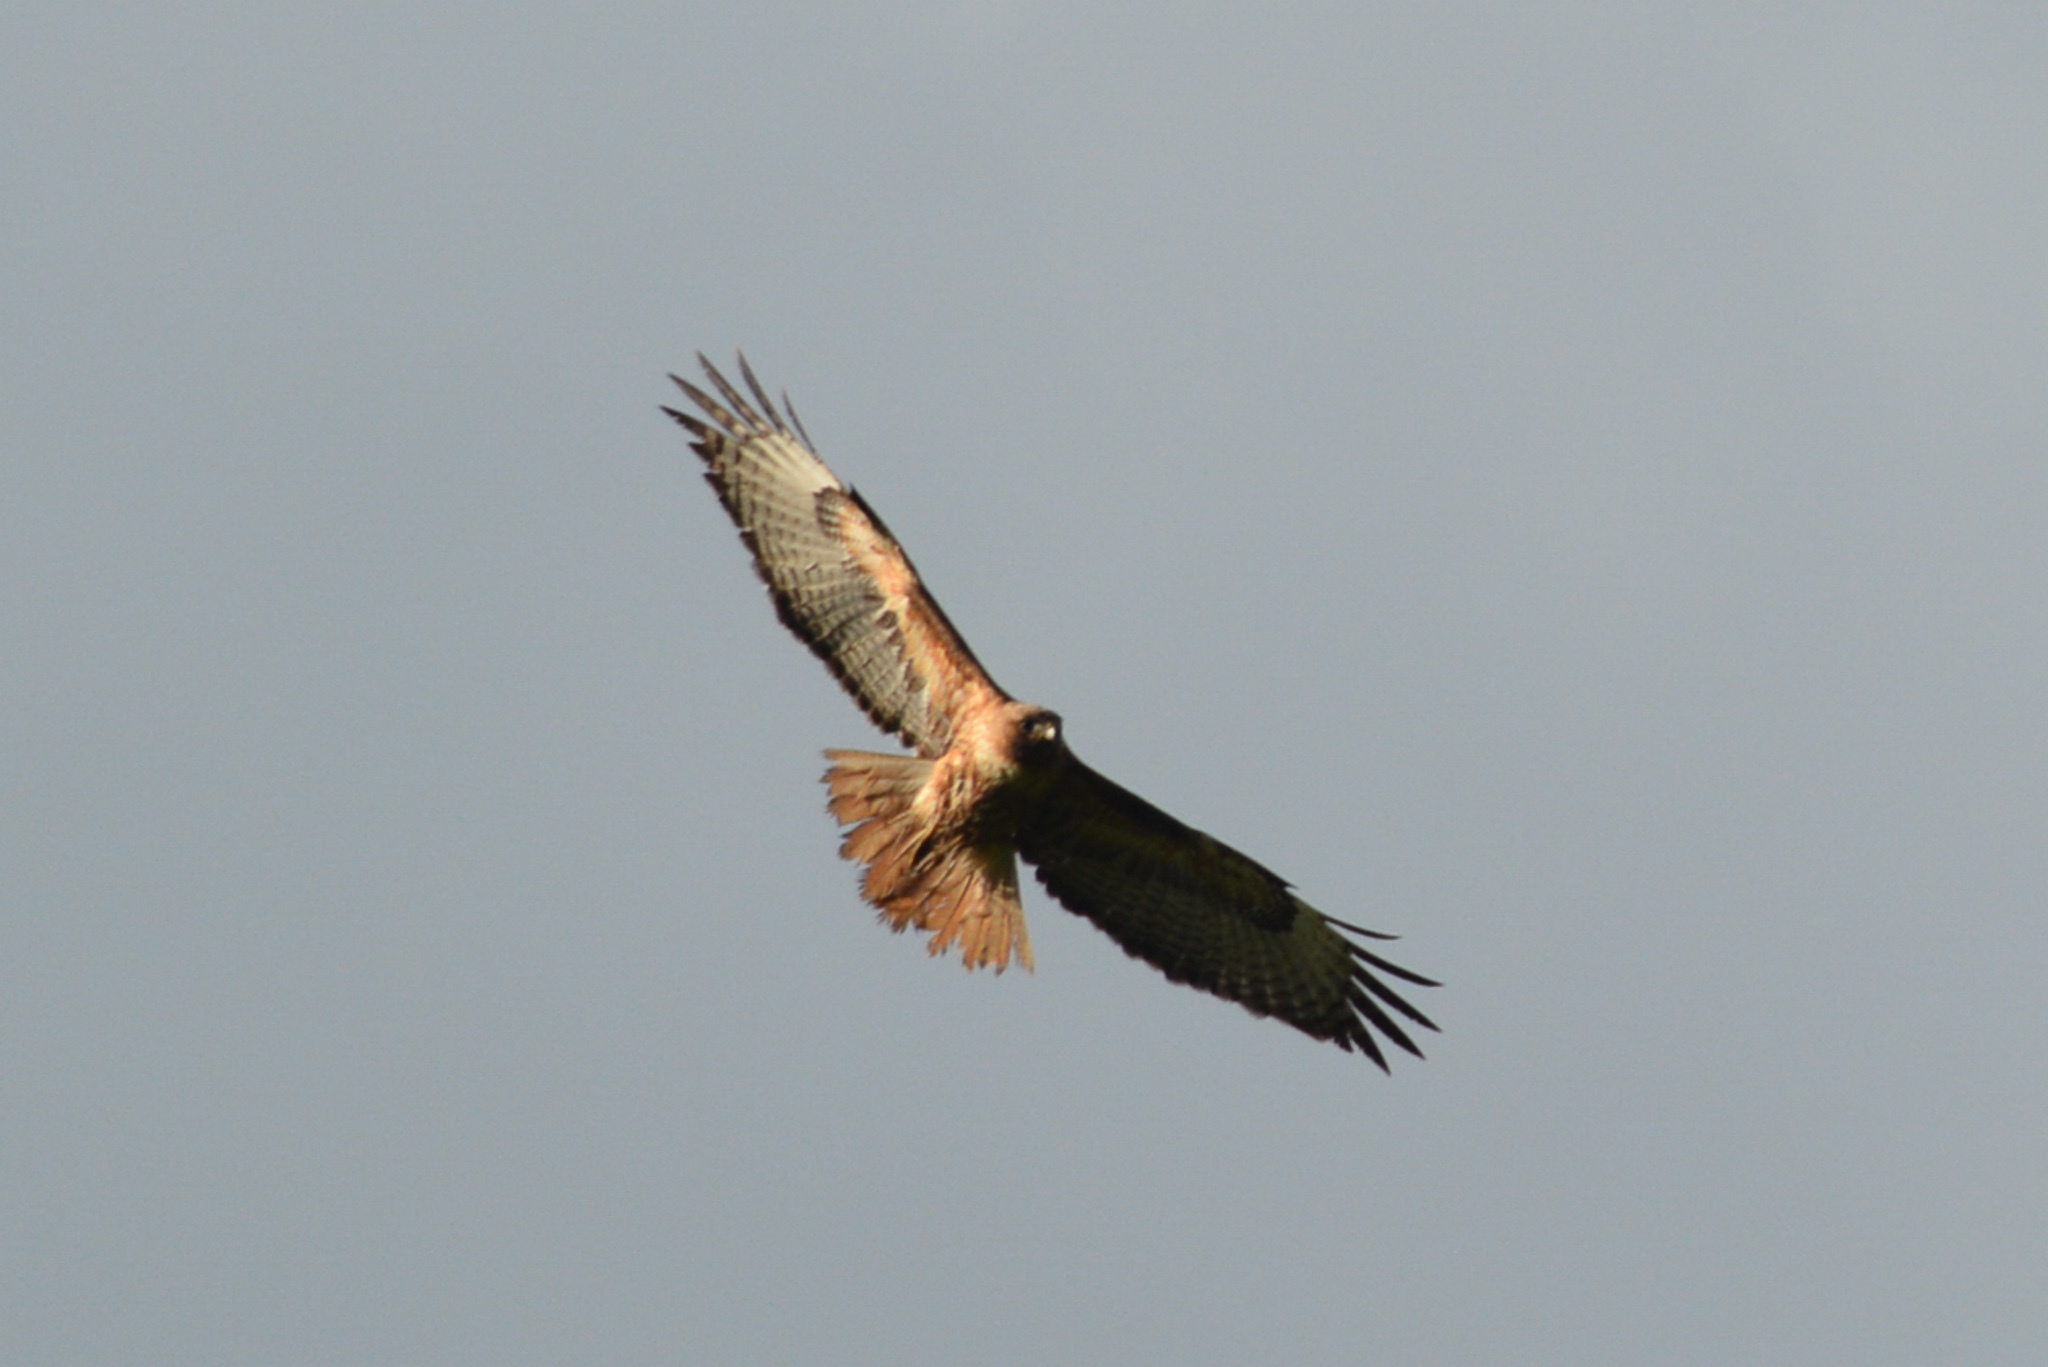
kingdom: Animalia
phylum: Chordata
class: Aves
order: Accipitriformes
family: Accipitridae
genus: Buteo
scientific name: Buteo jamaicensis
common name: Red-tailed hawk
